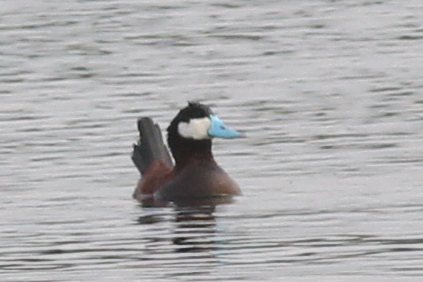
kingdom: Animalia
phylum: Chordata
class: Aves
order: Anseriformes
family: Anatidae
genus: Oxyura
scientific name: Oxyura jamaicensis
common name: Ruddy duck
